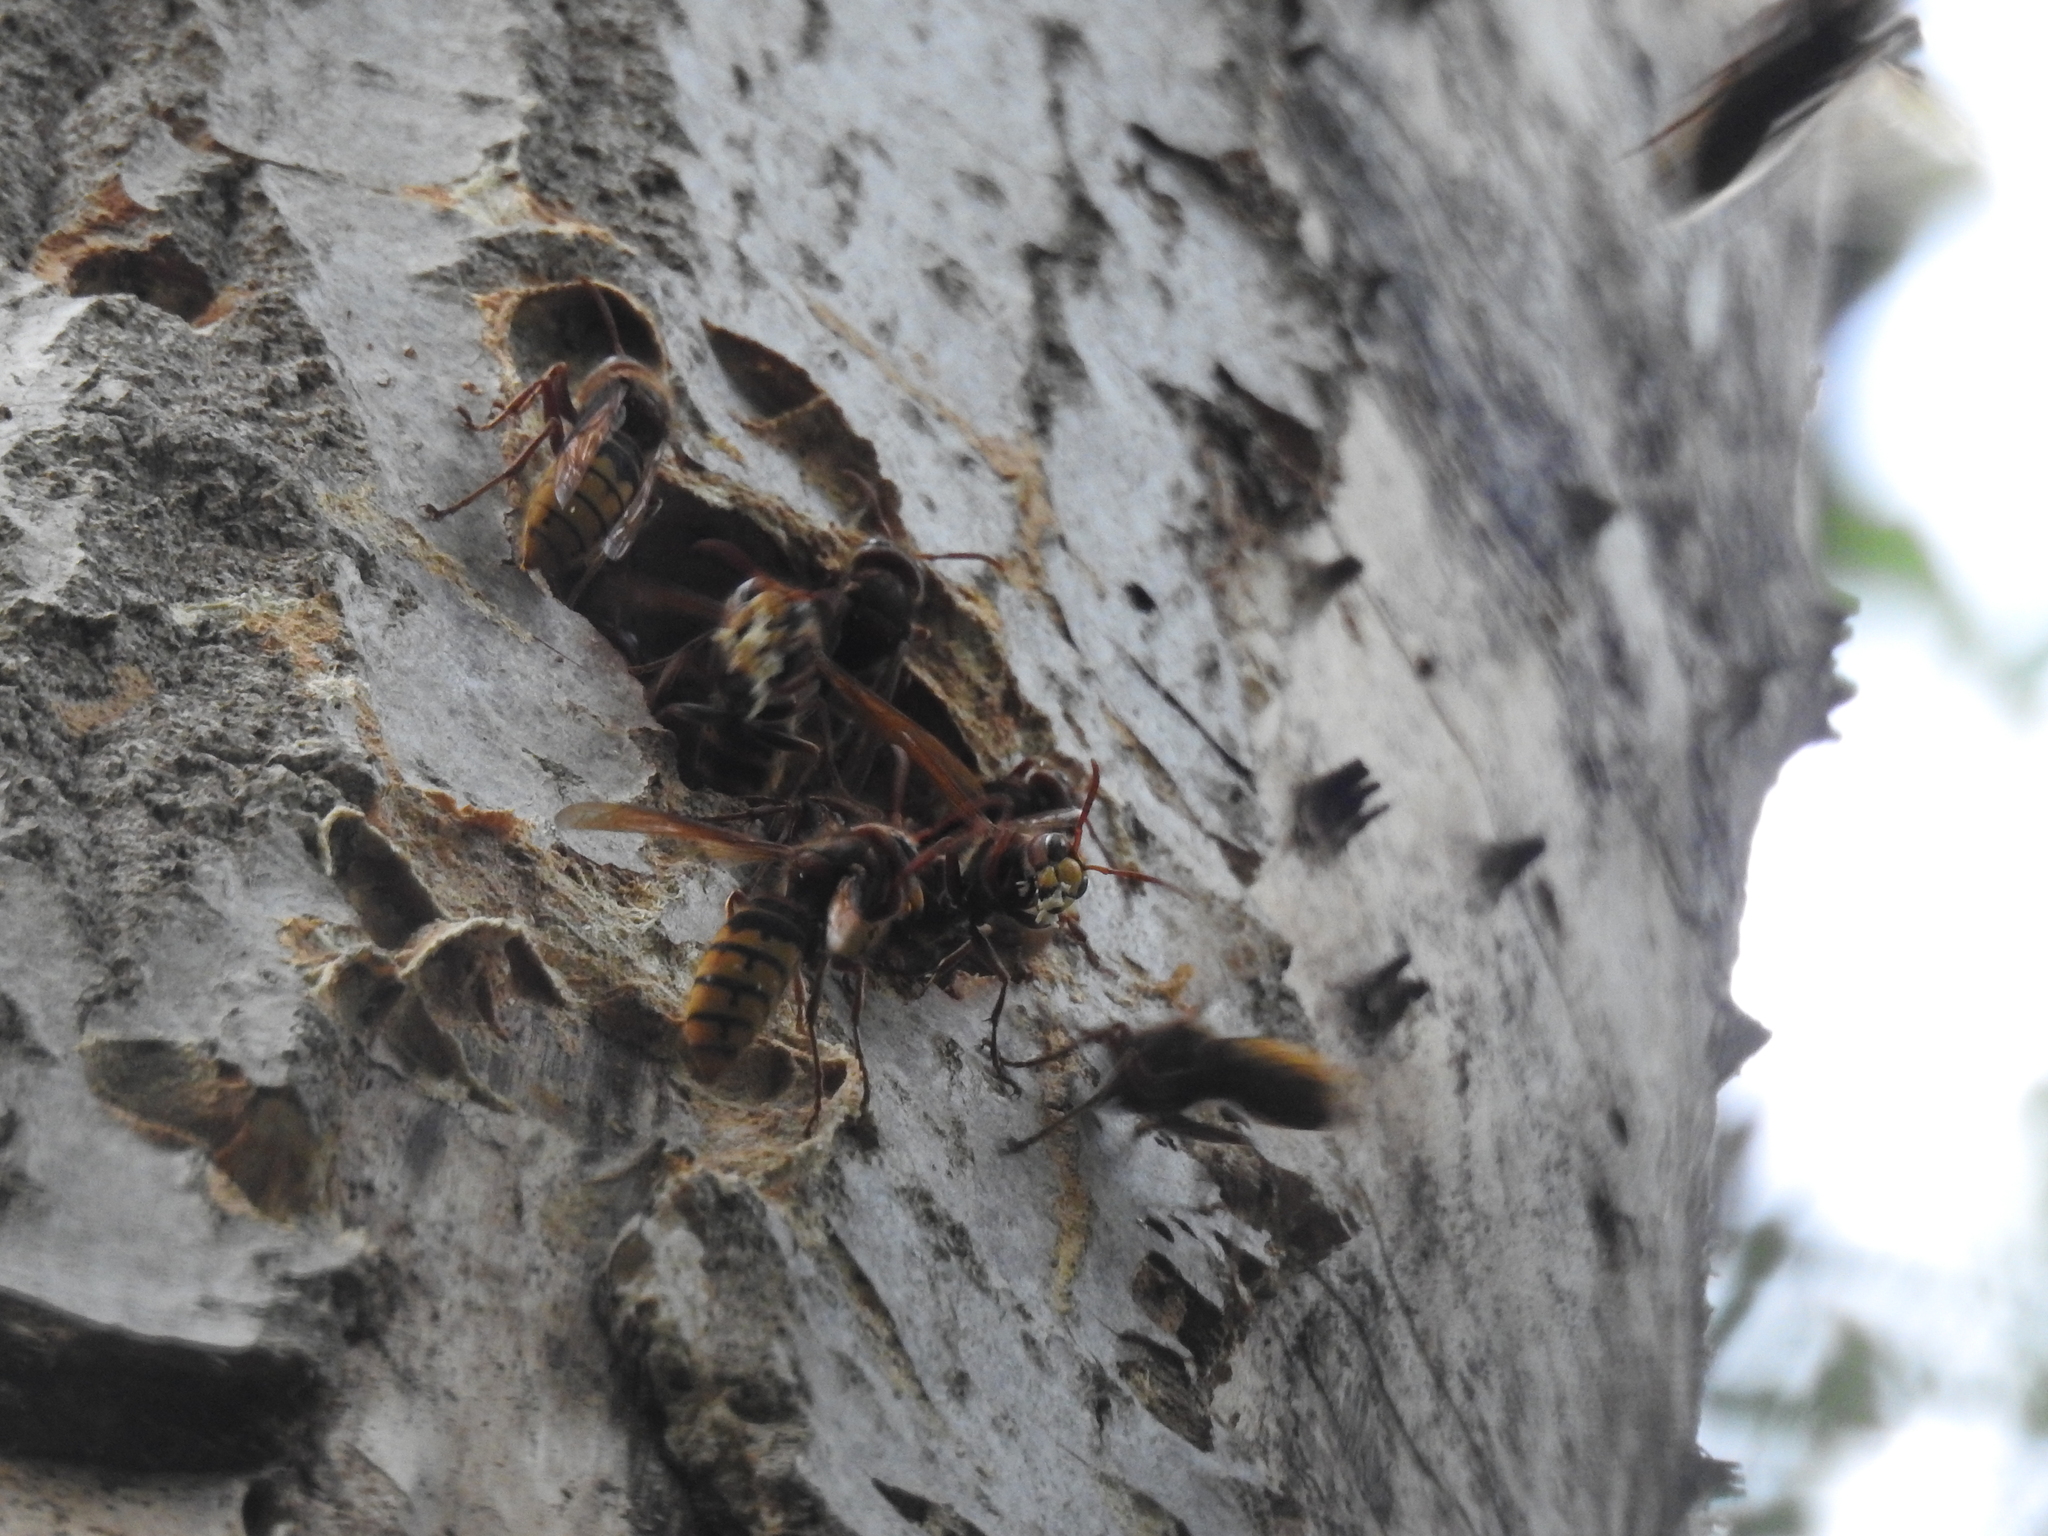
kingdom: Animalia
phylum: Arthropoda
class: Insecta
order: Hymenoptera
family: Vespidae
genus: Vespa
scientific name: Vespa crabro
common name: Hornet
